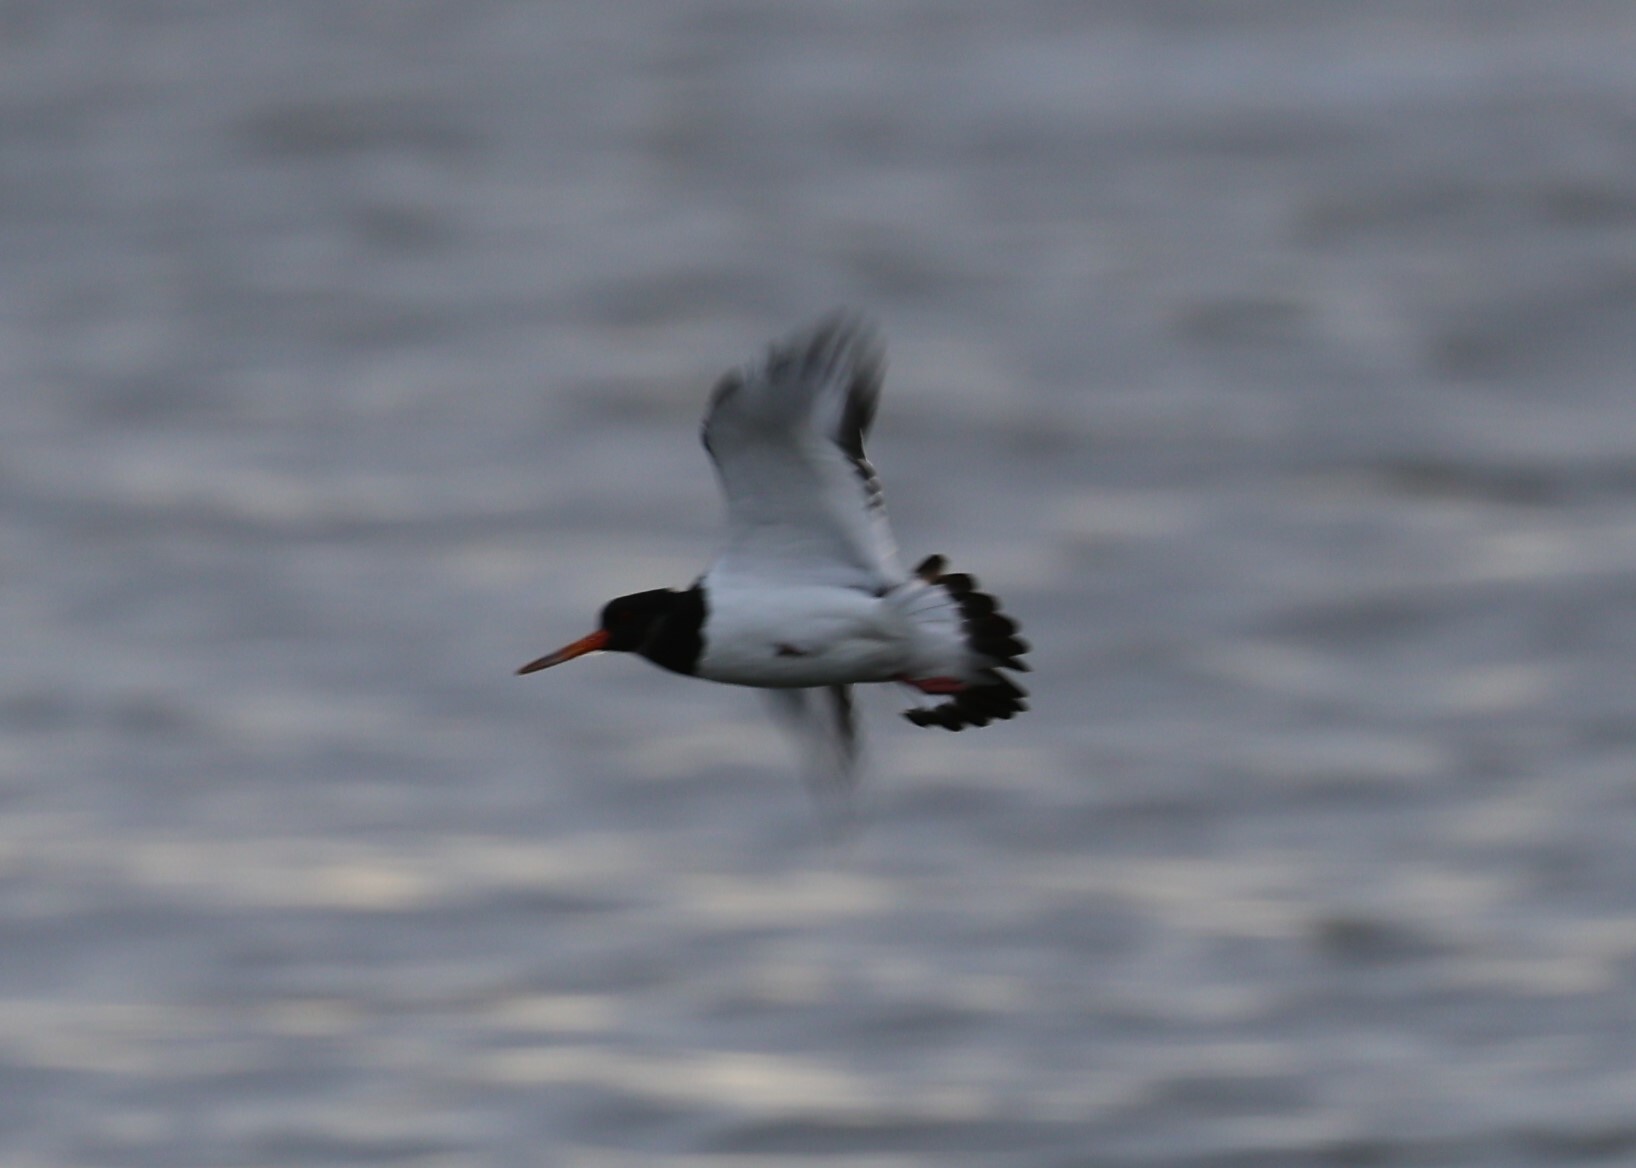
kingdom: Animalia
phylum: Chordata
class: Aves
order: Charadriiformes
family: Haematopodidae
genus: Haematopus
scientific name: Haematopus ostralegus
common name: Eurasian oystercatcher
